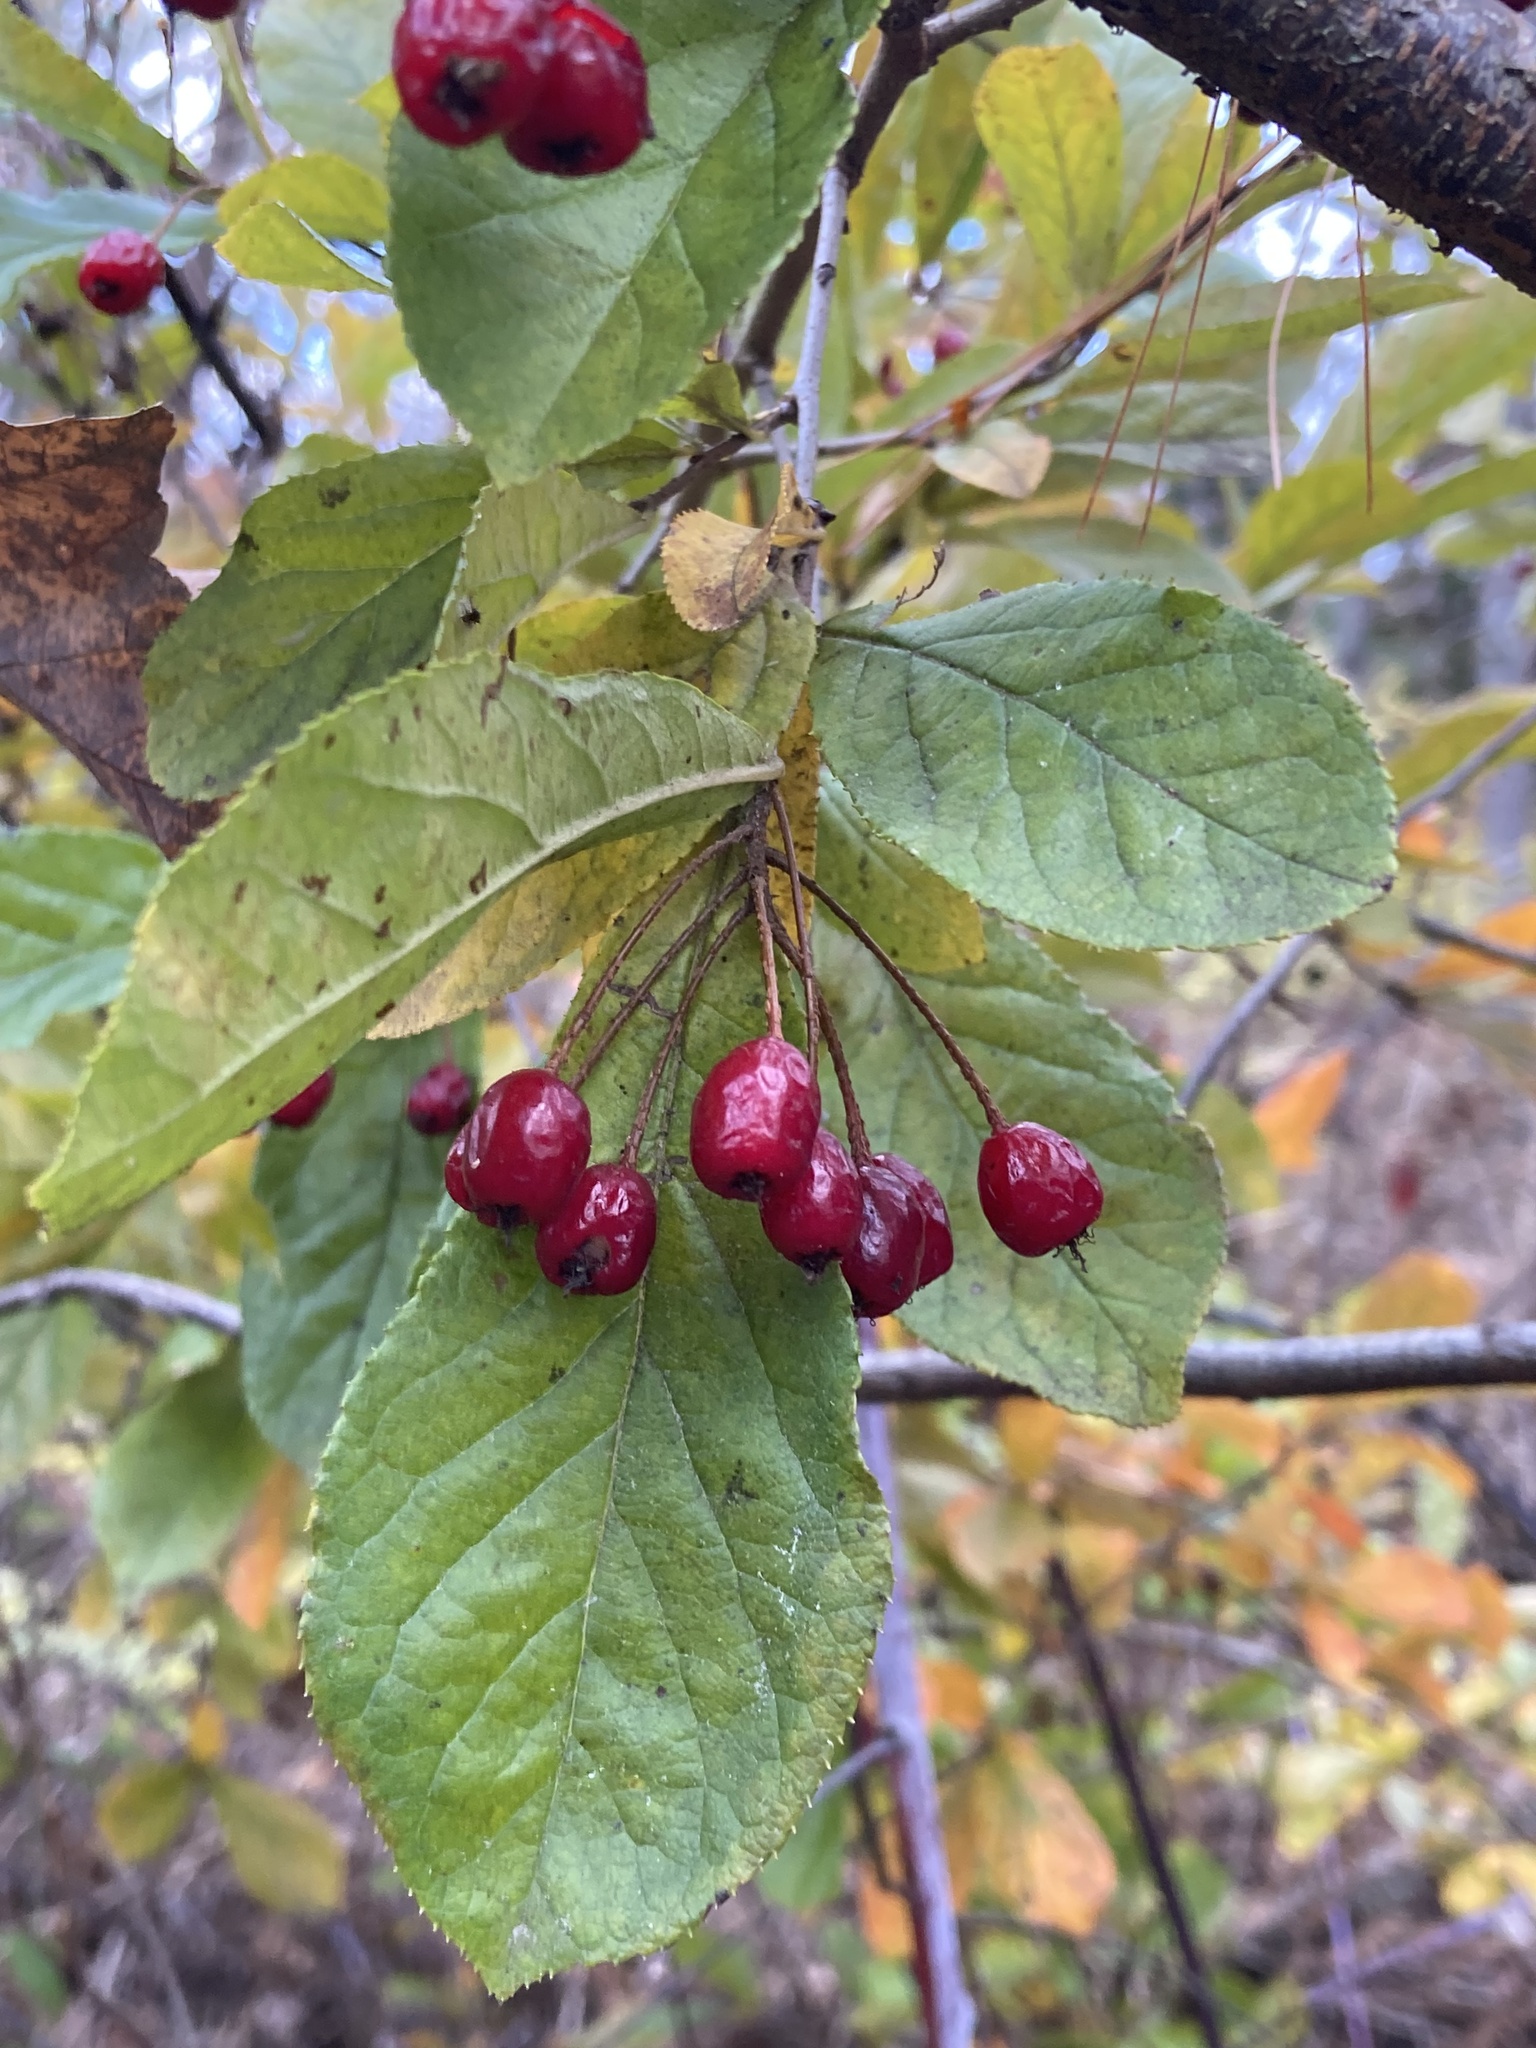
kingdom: Plantae
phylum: Tracheophyta
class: Magnoliopsida
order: Rosales
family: Rosaceae
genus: Pourthiaea
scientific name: Pourthiaea villosa
